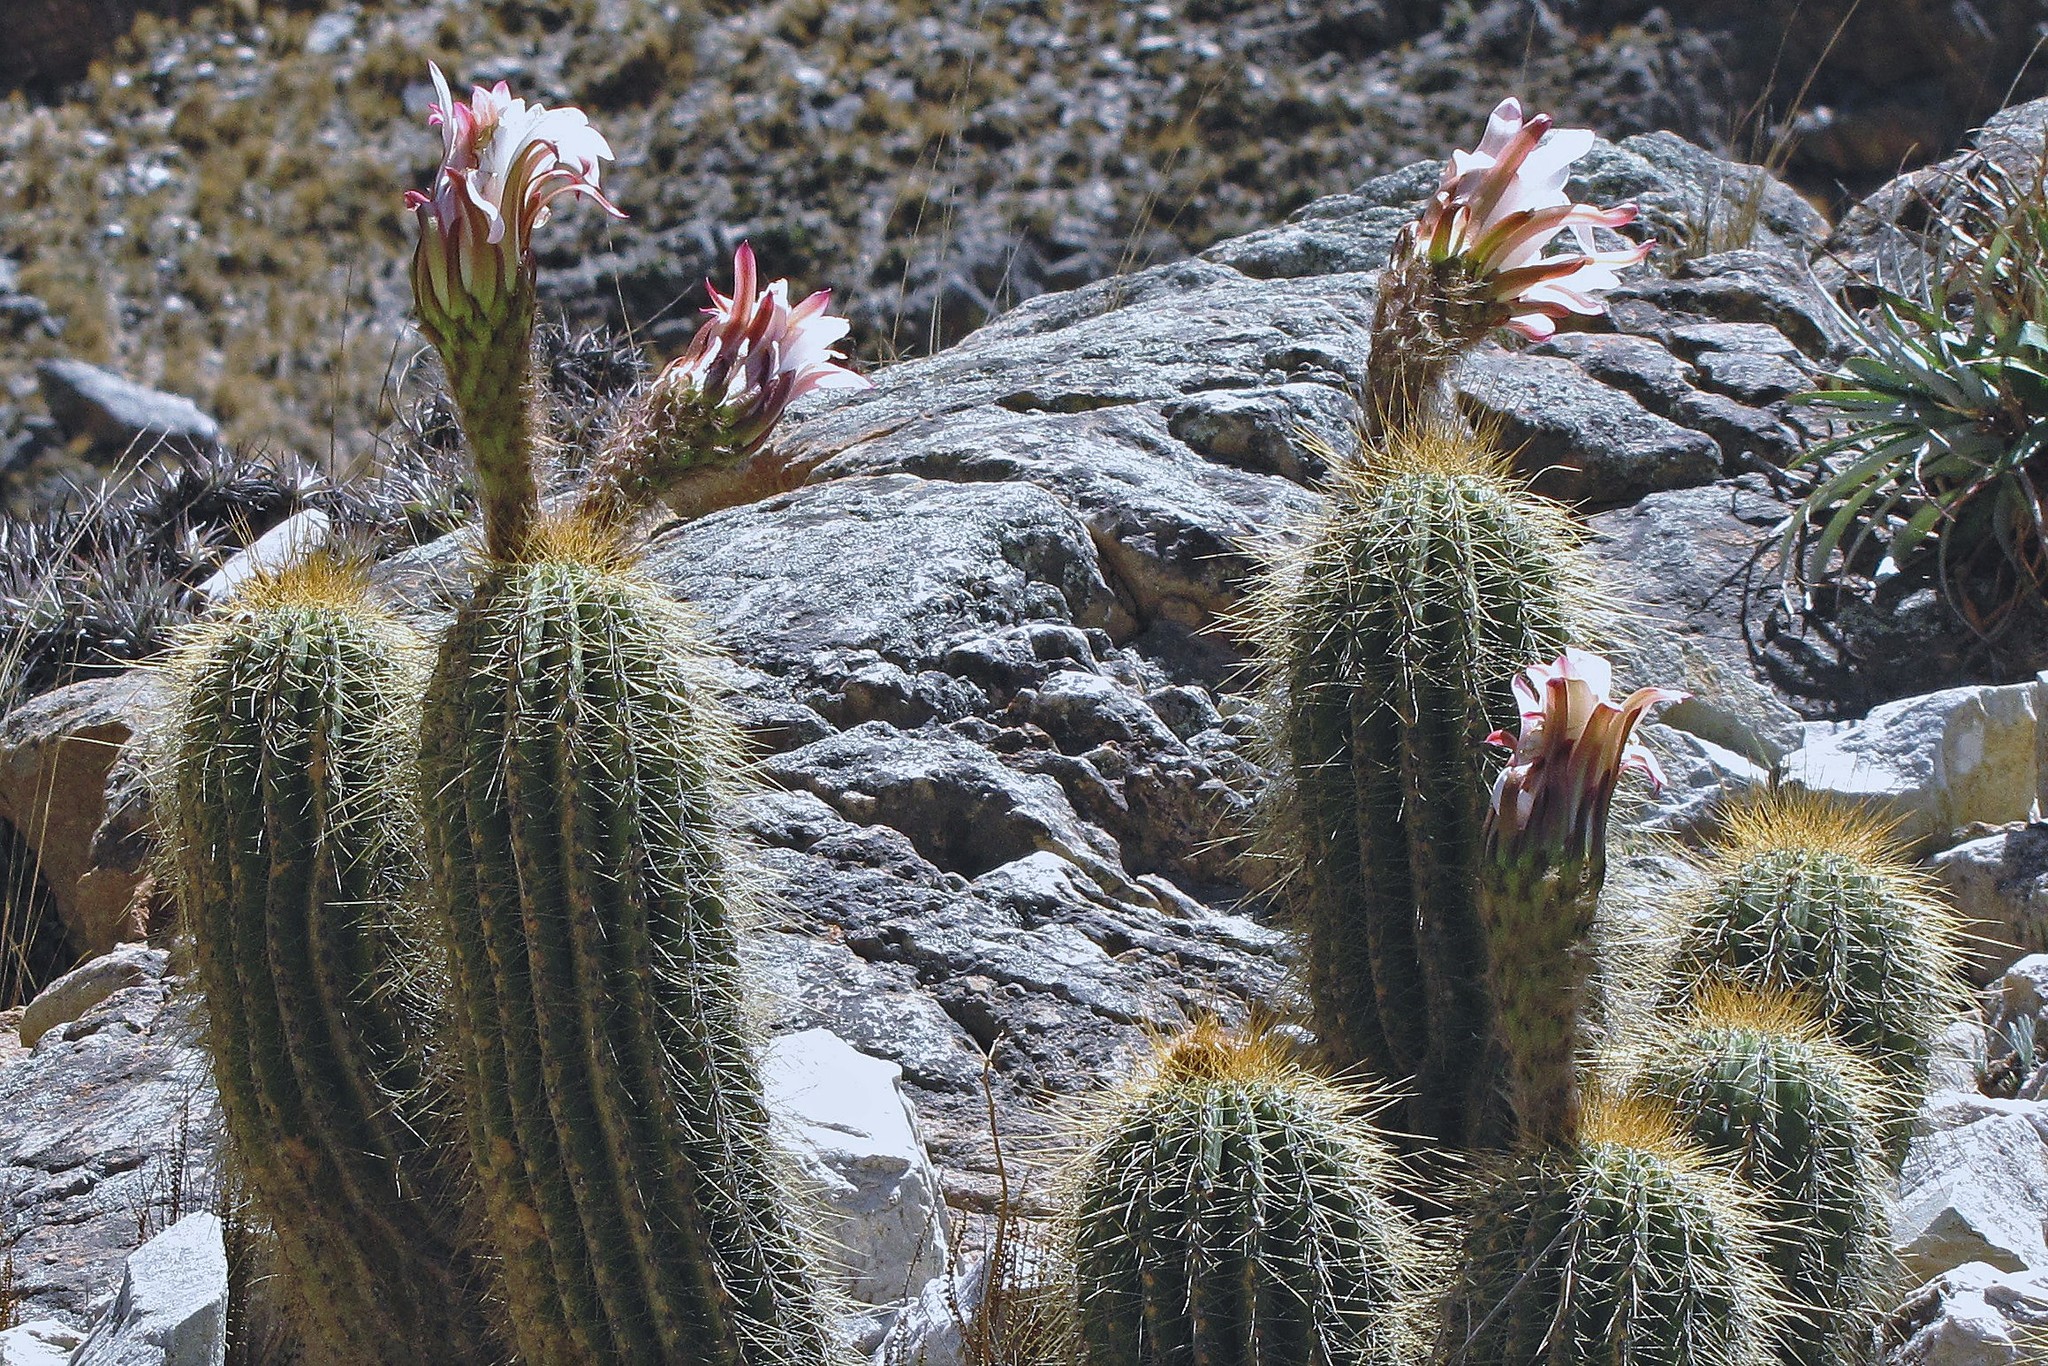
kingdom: Plantae
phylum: Tracheophyta
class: Magnoliopsida
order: Caryophyllales
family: Cactaceae
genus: Soehrensia
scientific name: Soehrensia schickendantzii
